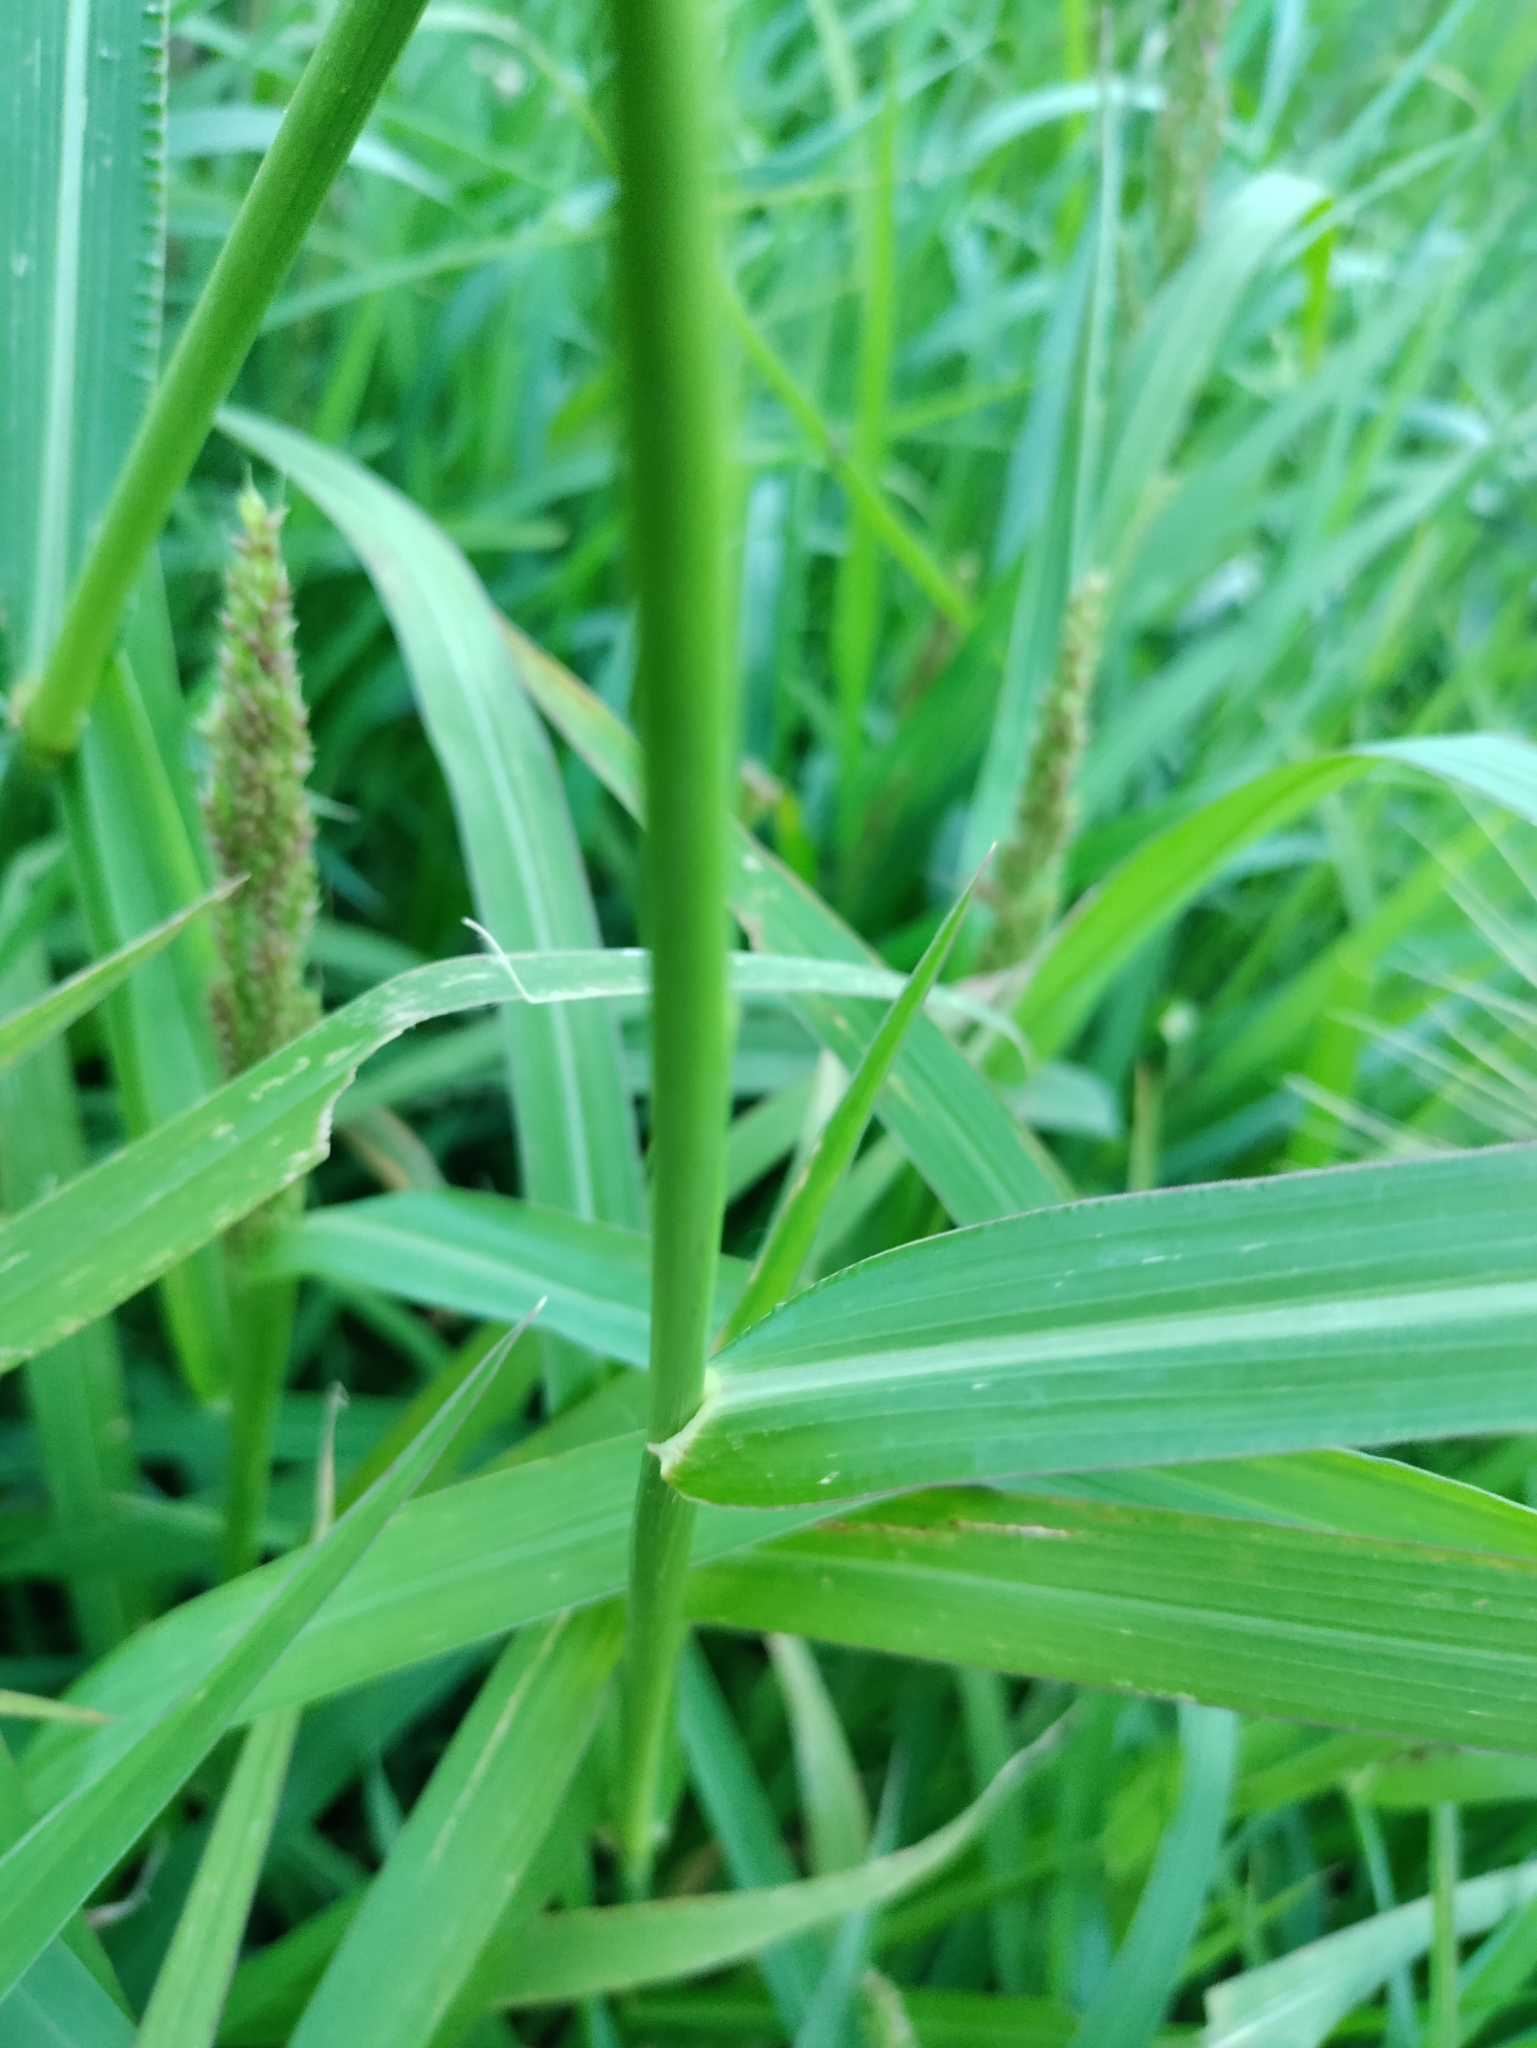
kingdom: Plantae
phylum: Tracheophyta
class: Liliopsida
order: Poales
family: Poaceae
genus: Echinochloa
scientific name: Echinochloa crus-galli
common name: Cockspur
